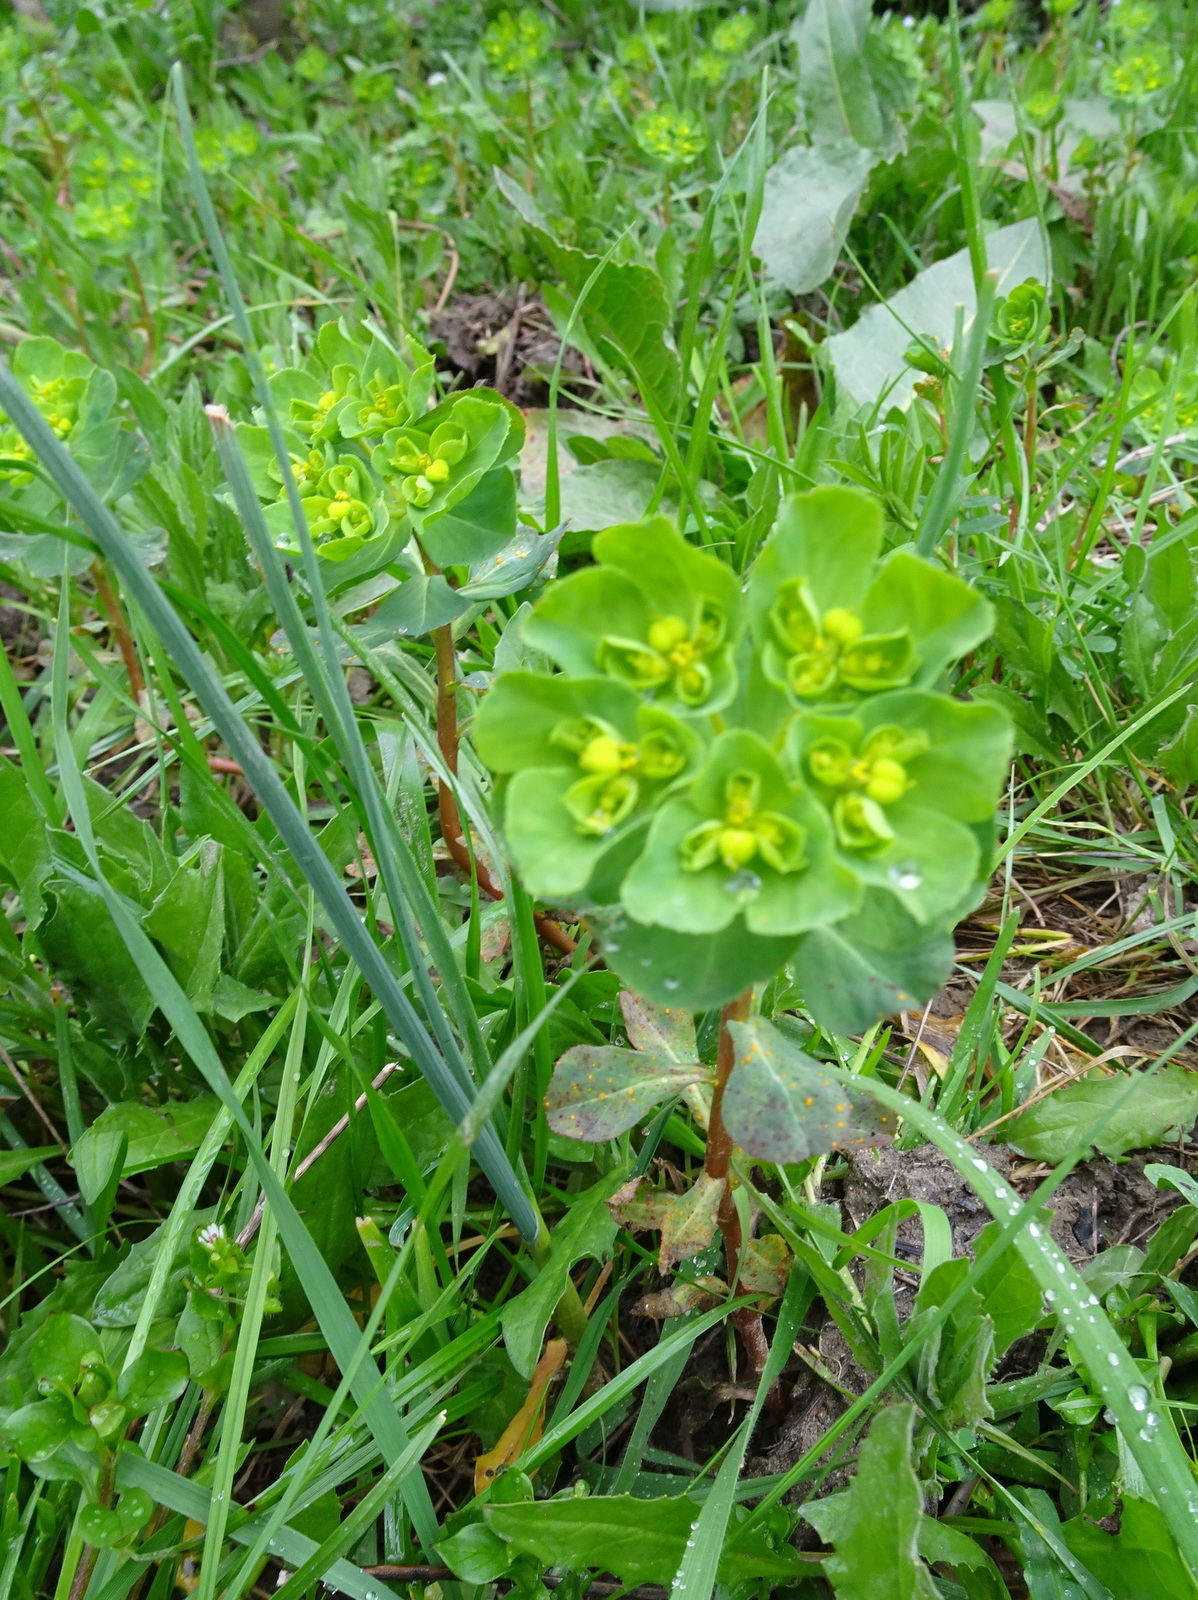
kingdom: Plantae
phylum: Tracheophyta
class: Magnoliopsida
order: Malpighiales
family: Euphorbiaceae
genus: Euphorbia
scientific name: Euphorbia helioscopia
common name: Sun spurge
